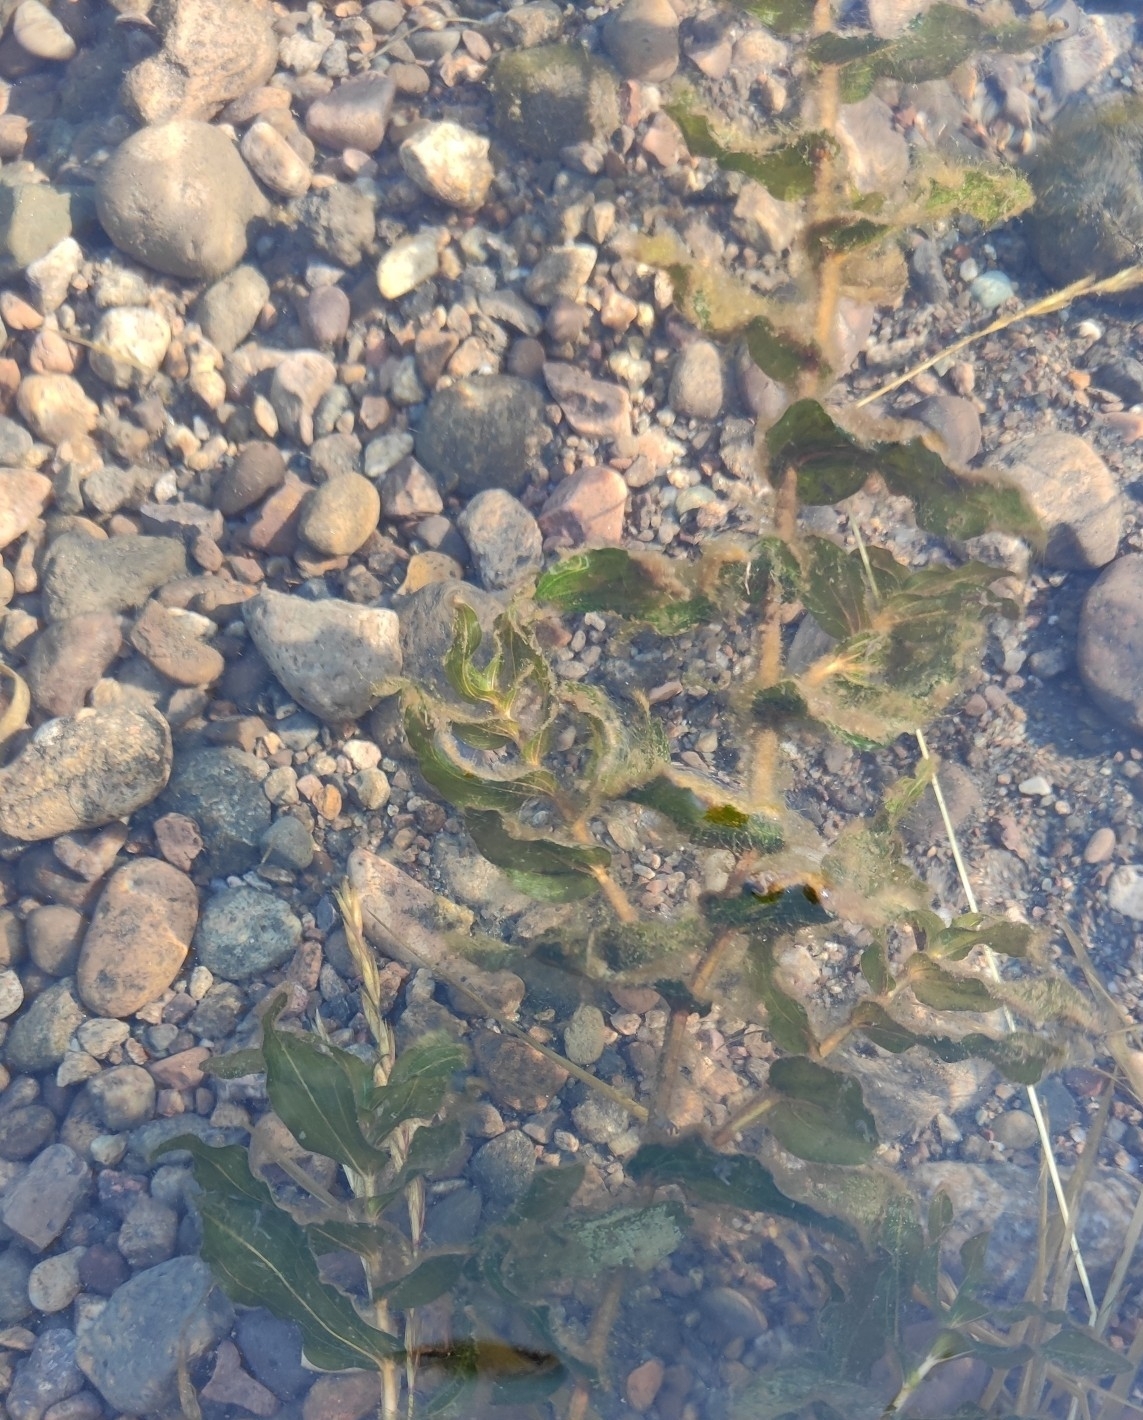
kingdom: Plantae
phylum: Tracheophyta
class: Liliopsida
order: Alismatales
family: Potamogetonaceae
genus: Potamogeton
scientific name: Potamogeton perfoliatus
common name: Perfoliate pondweed
